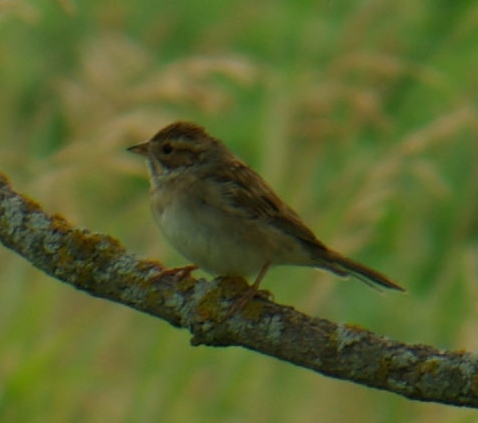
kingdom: Animalia
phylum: Chordata
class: Aves
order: Passeriformes
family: Passerellidae
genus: Spizella
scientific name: Spizella pallida
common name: Clay-colored sparrow
